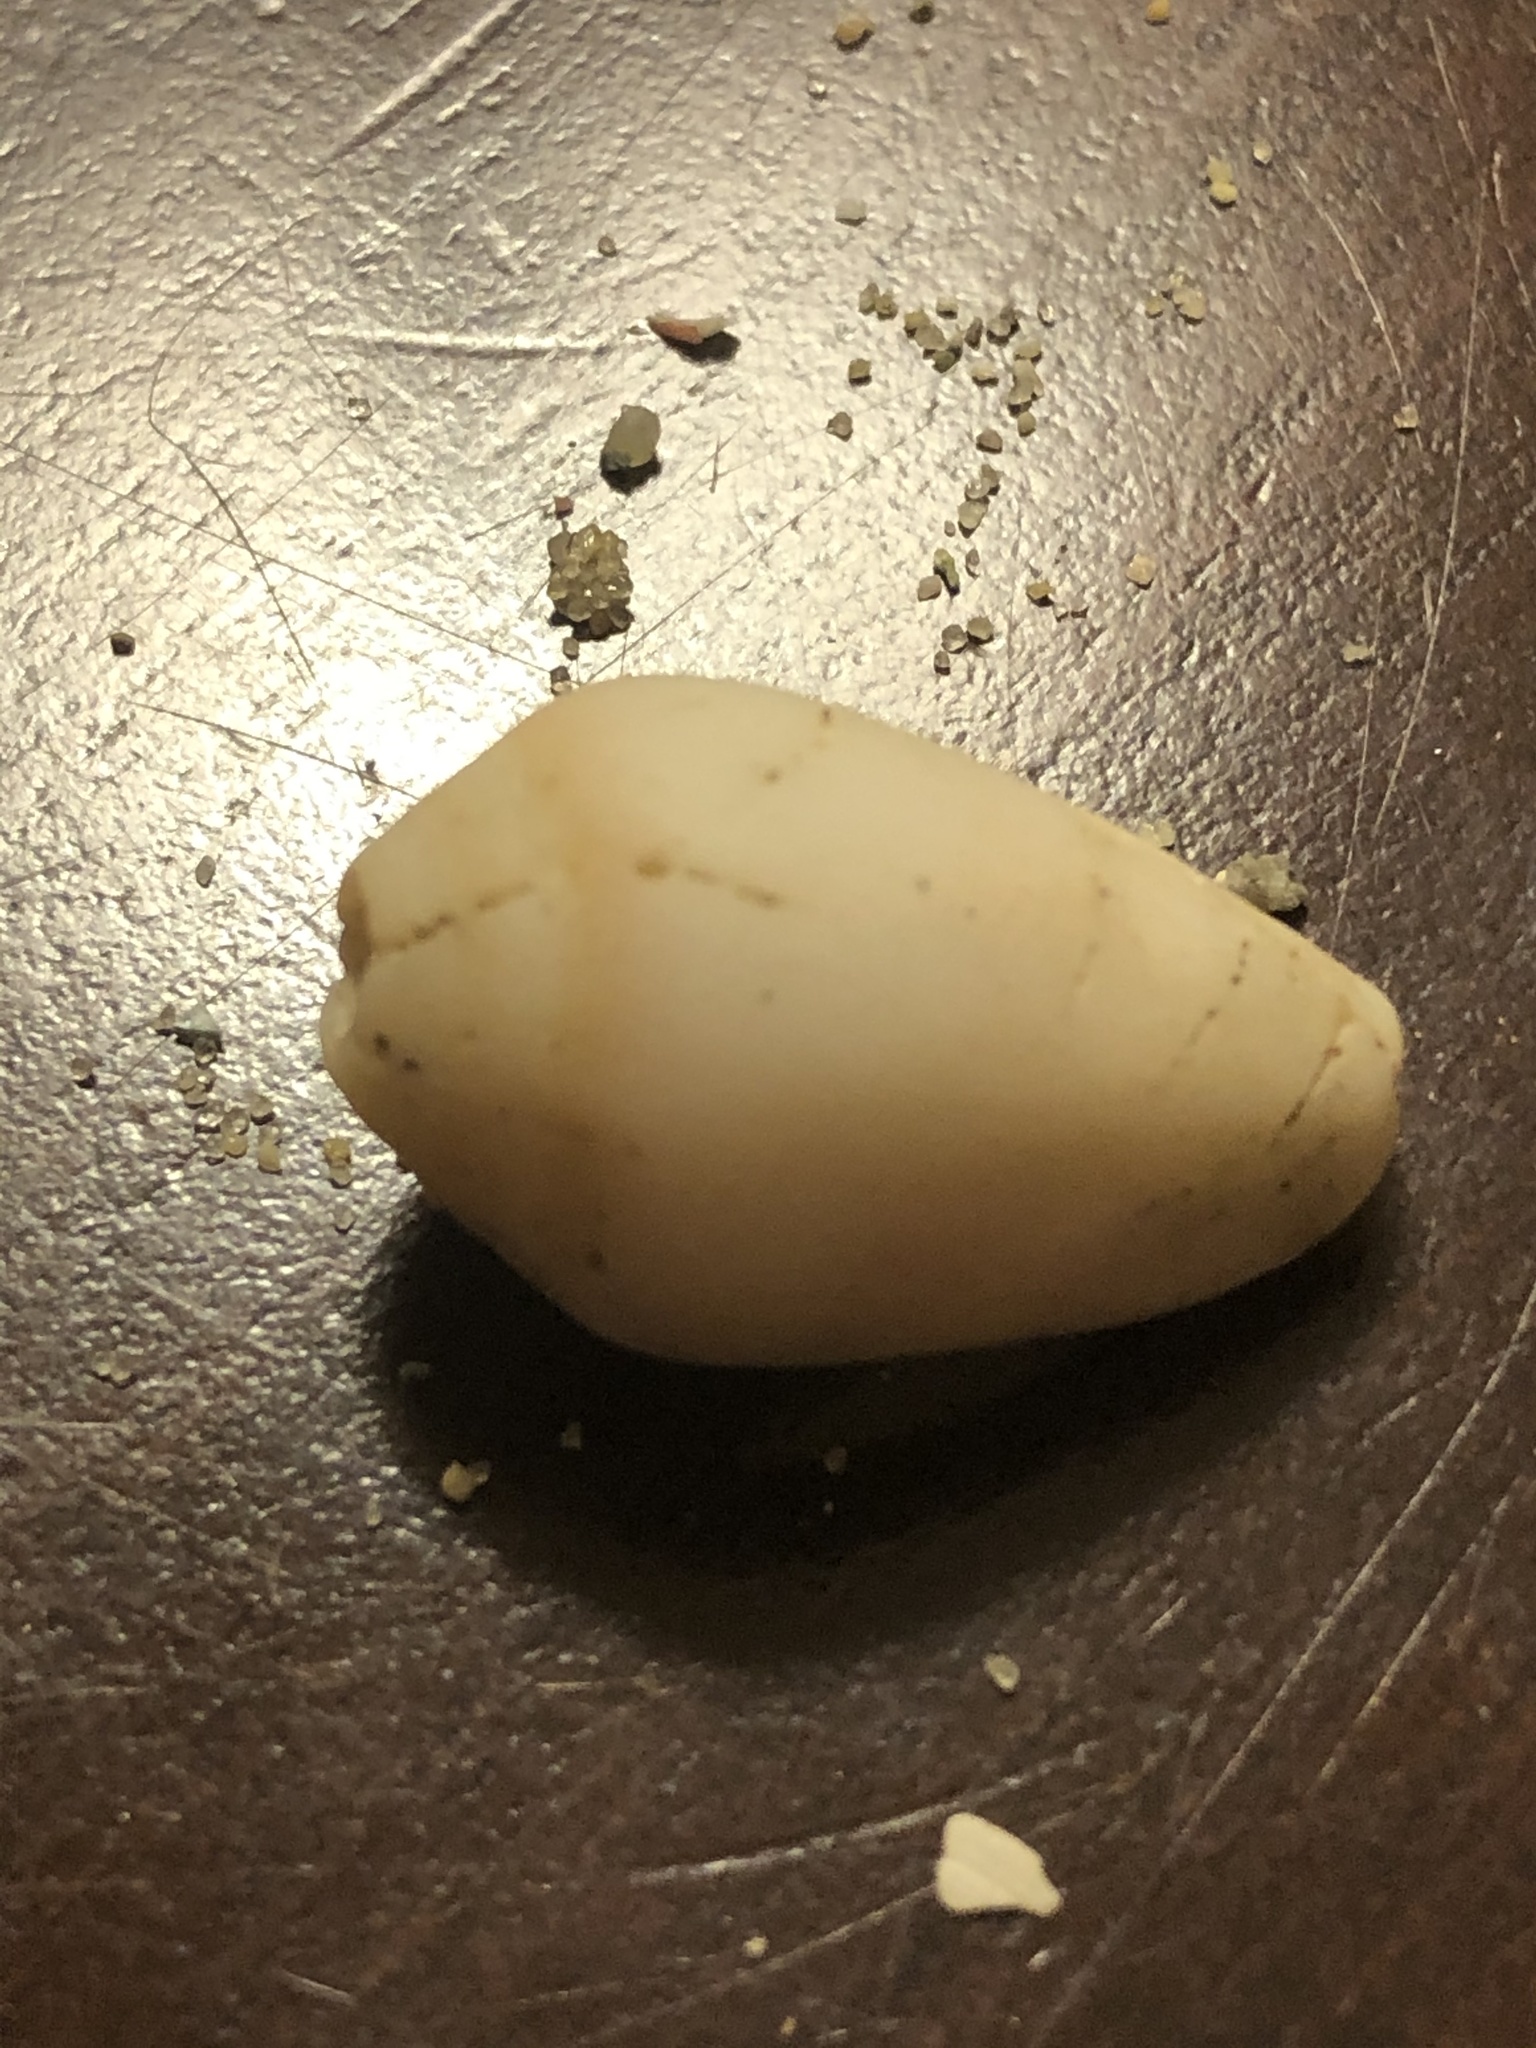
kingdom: Animalia
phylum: Mollusca
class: Gastropoda
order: Neogastropoda
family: Conidae
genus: Californiconus
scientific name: Californiconus californicus
